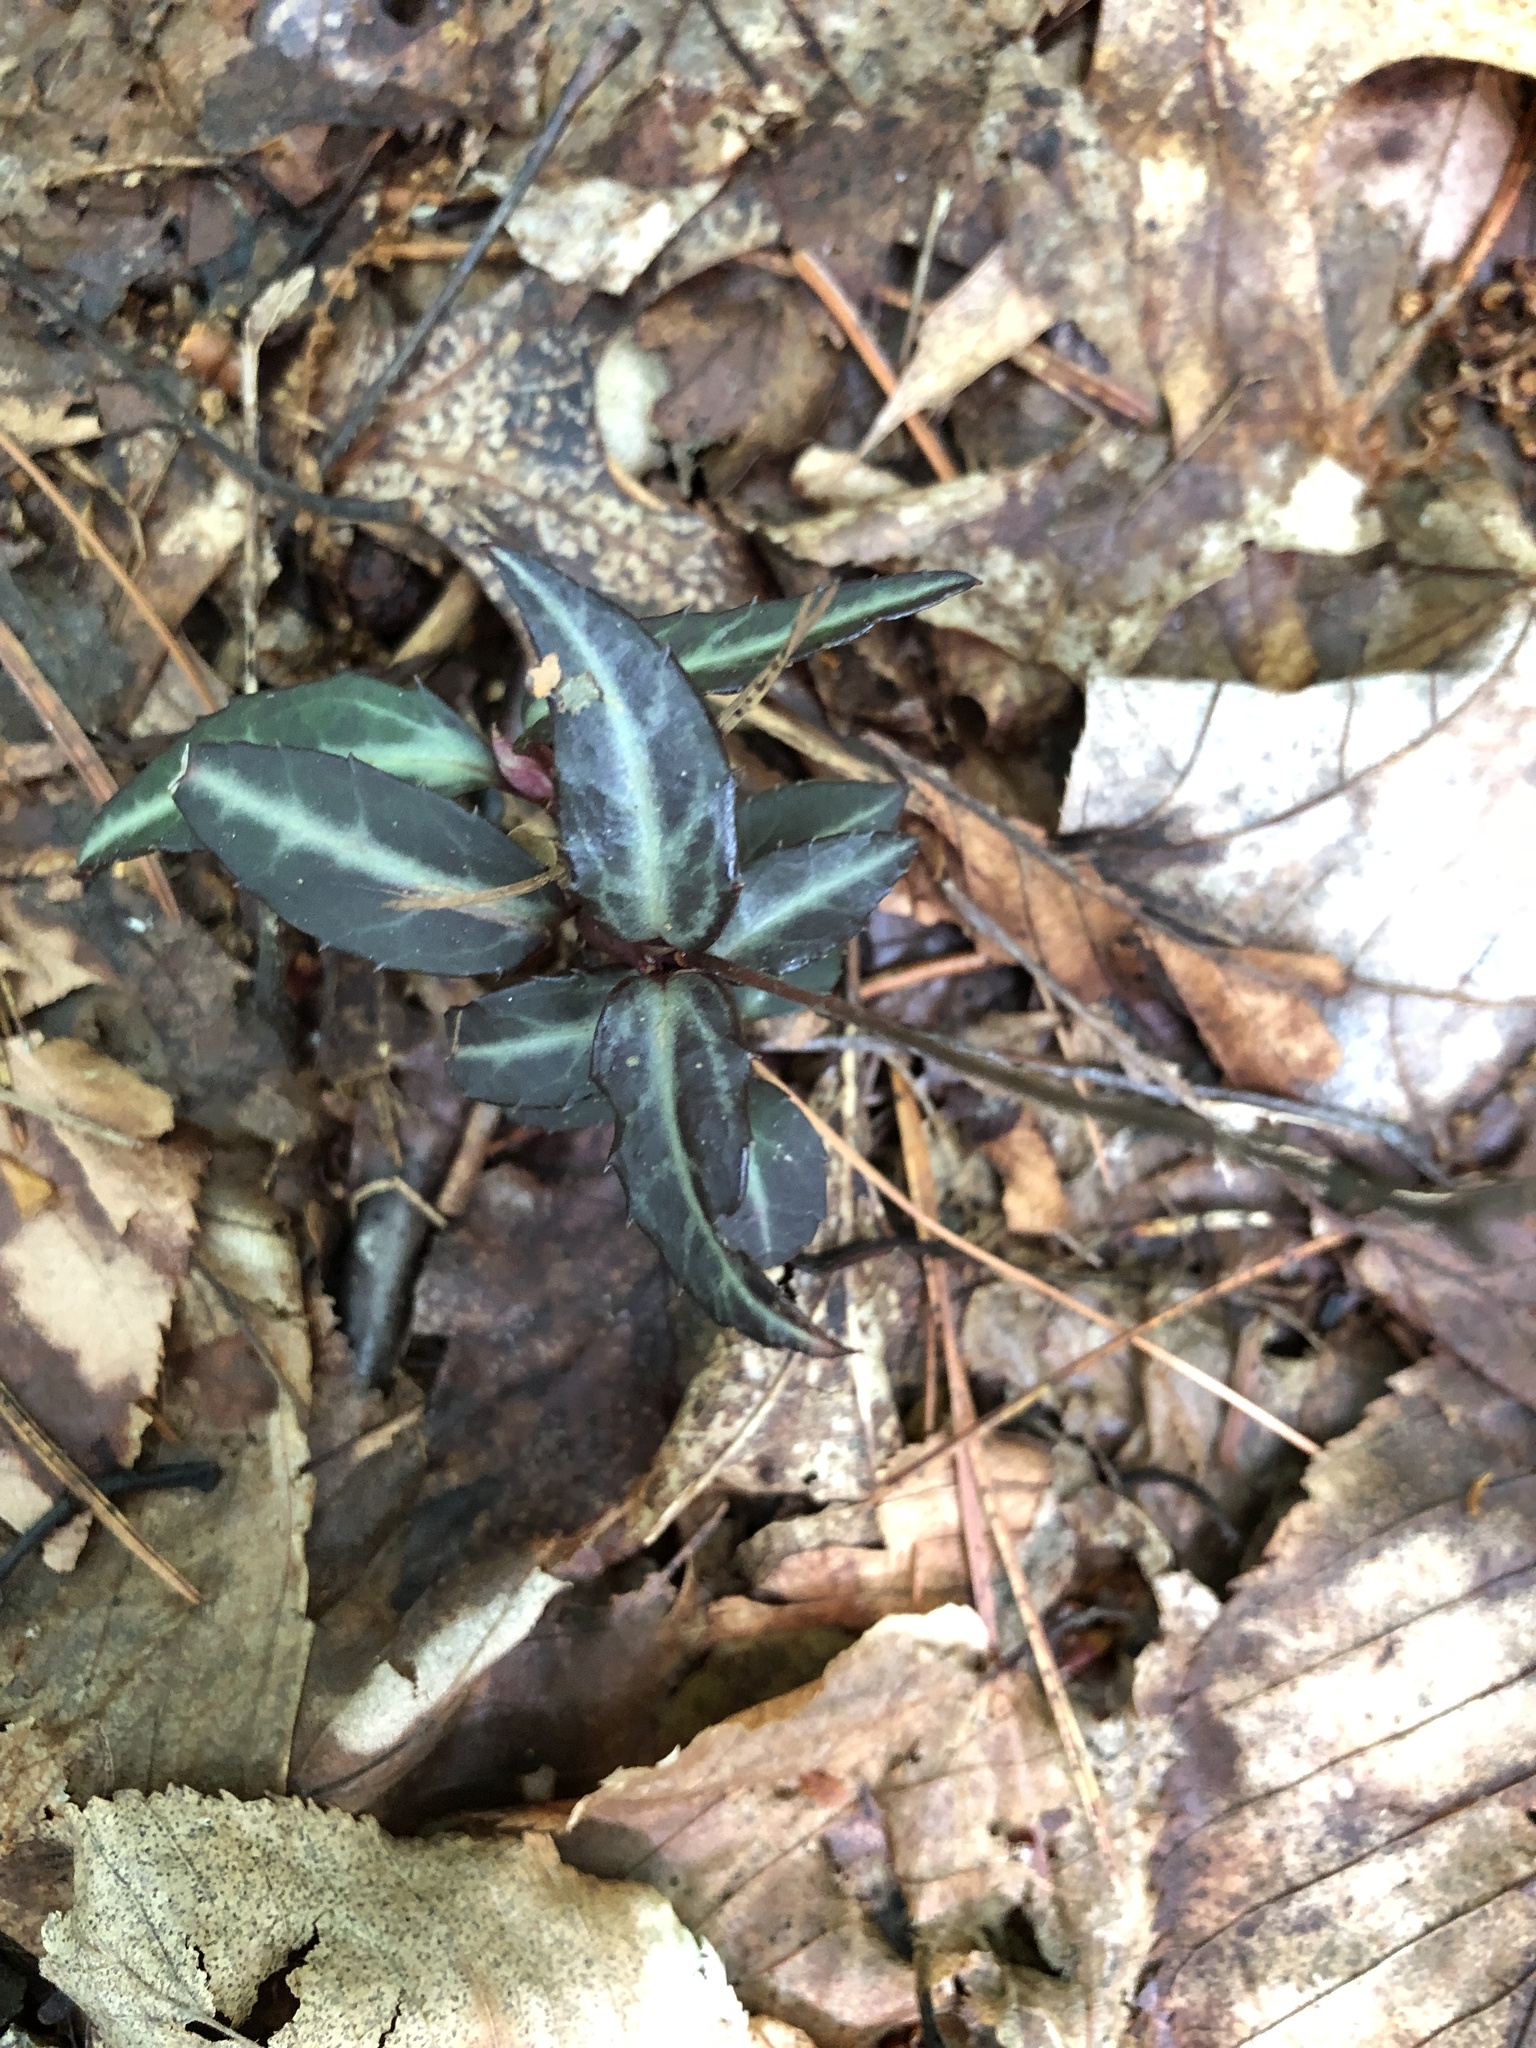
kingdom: Plantae
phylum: Tracheophyta
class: Magnoliopsida
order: Ericales
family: Ericaceae
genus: Chimaphila
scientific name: Chimaphila maculata
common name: Spotted pipsissewa
